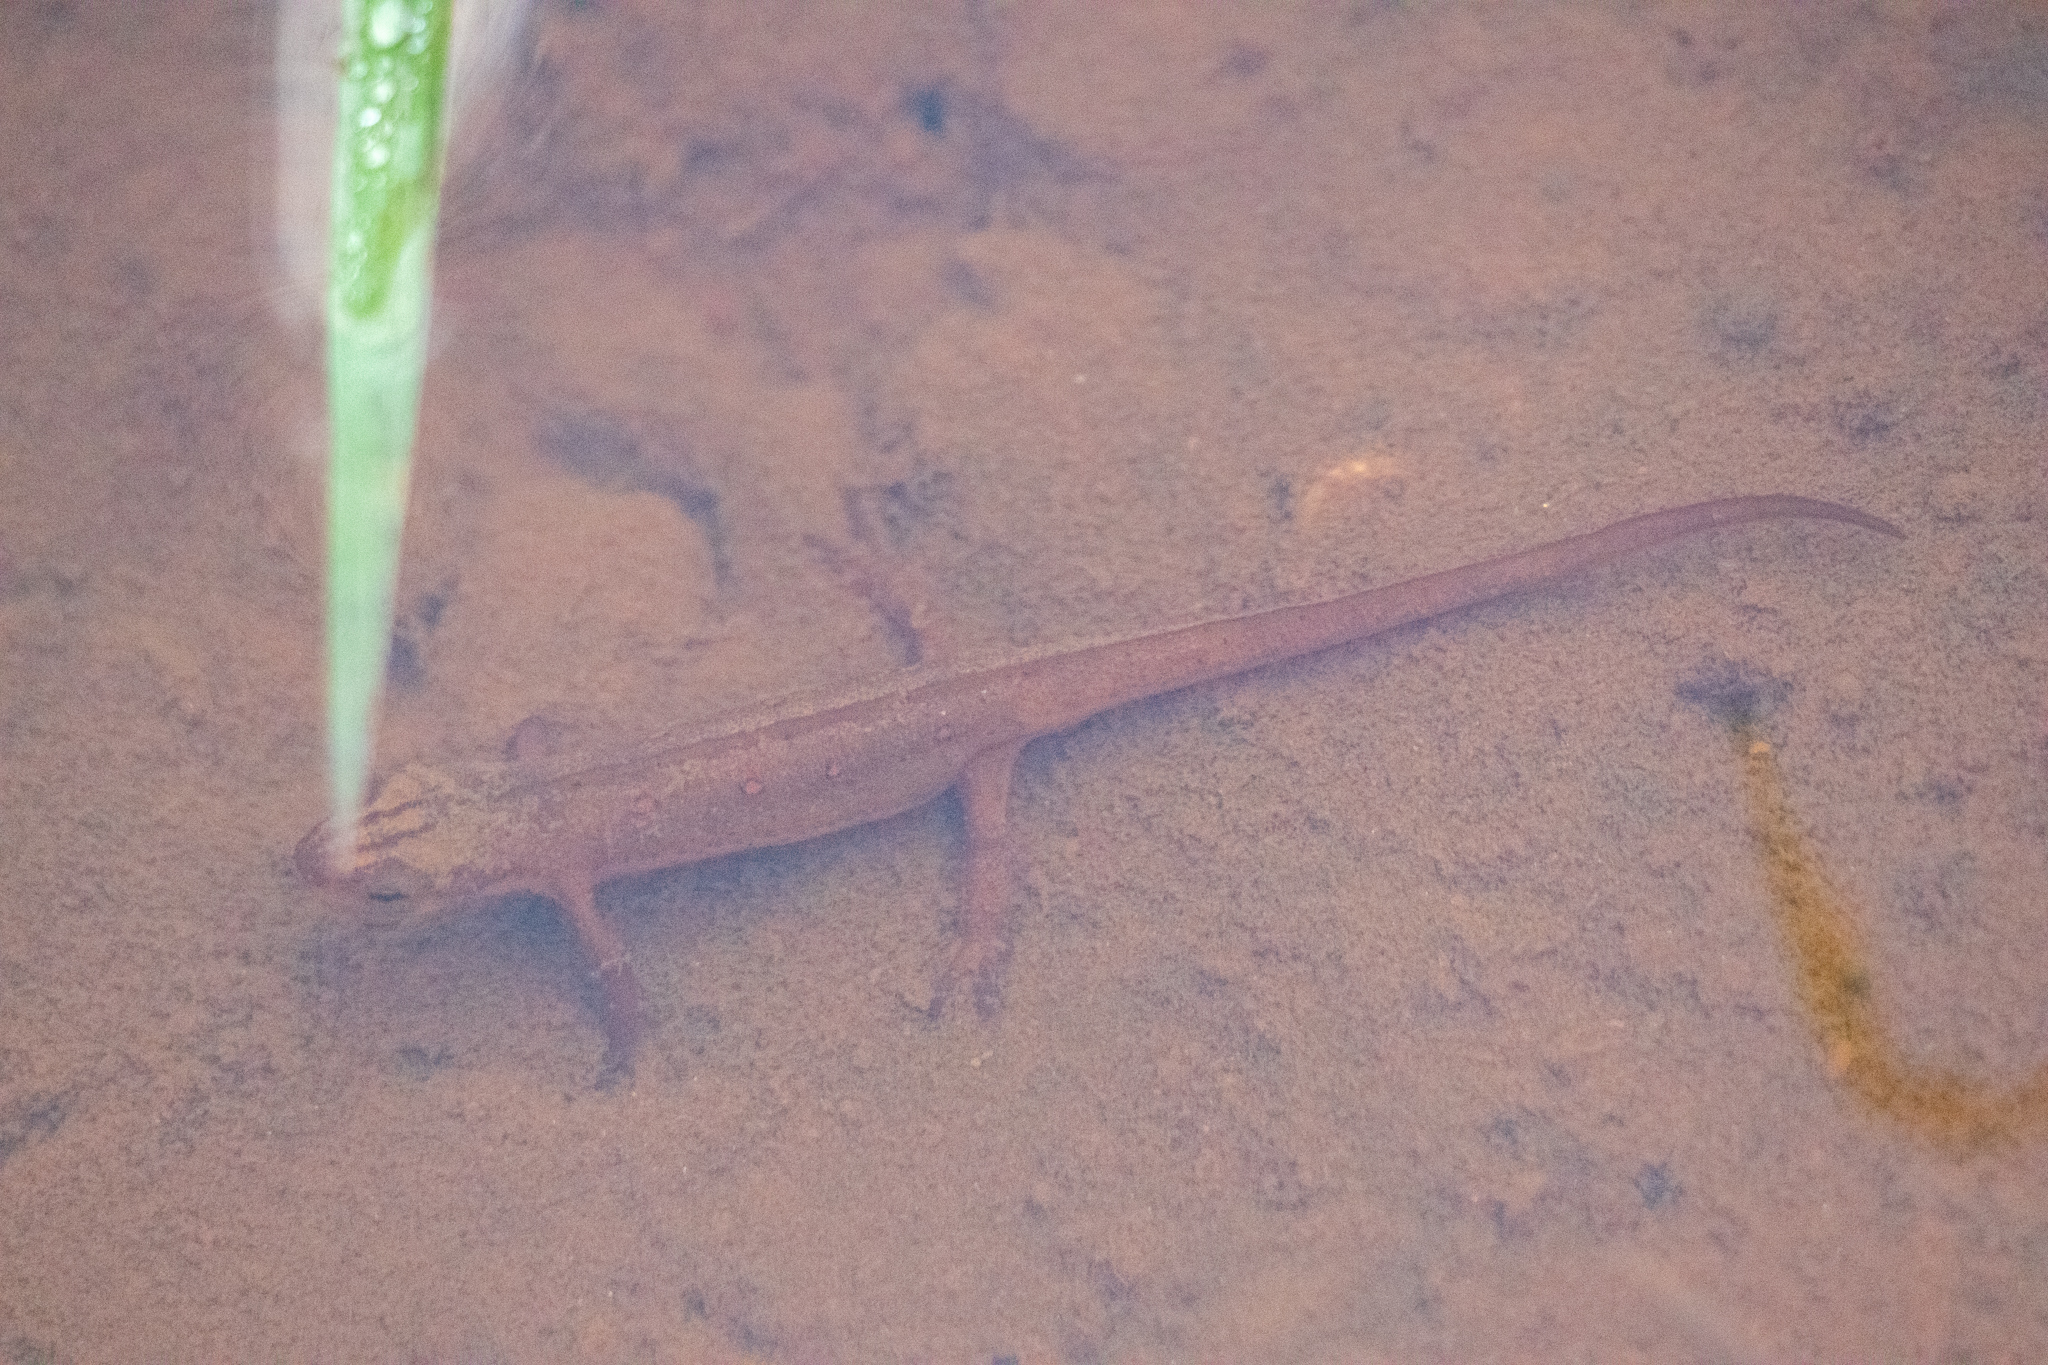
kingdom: Animalia
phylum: Chordata
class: Amphibia
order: Caudata
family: Salamandridae
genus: Notophthalmus
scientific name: Notophthalmus viridescens
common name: Eastern newt
